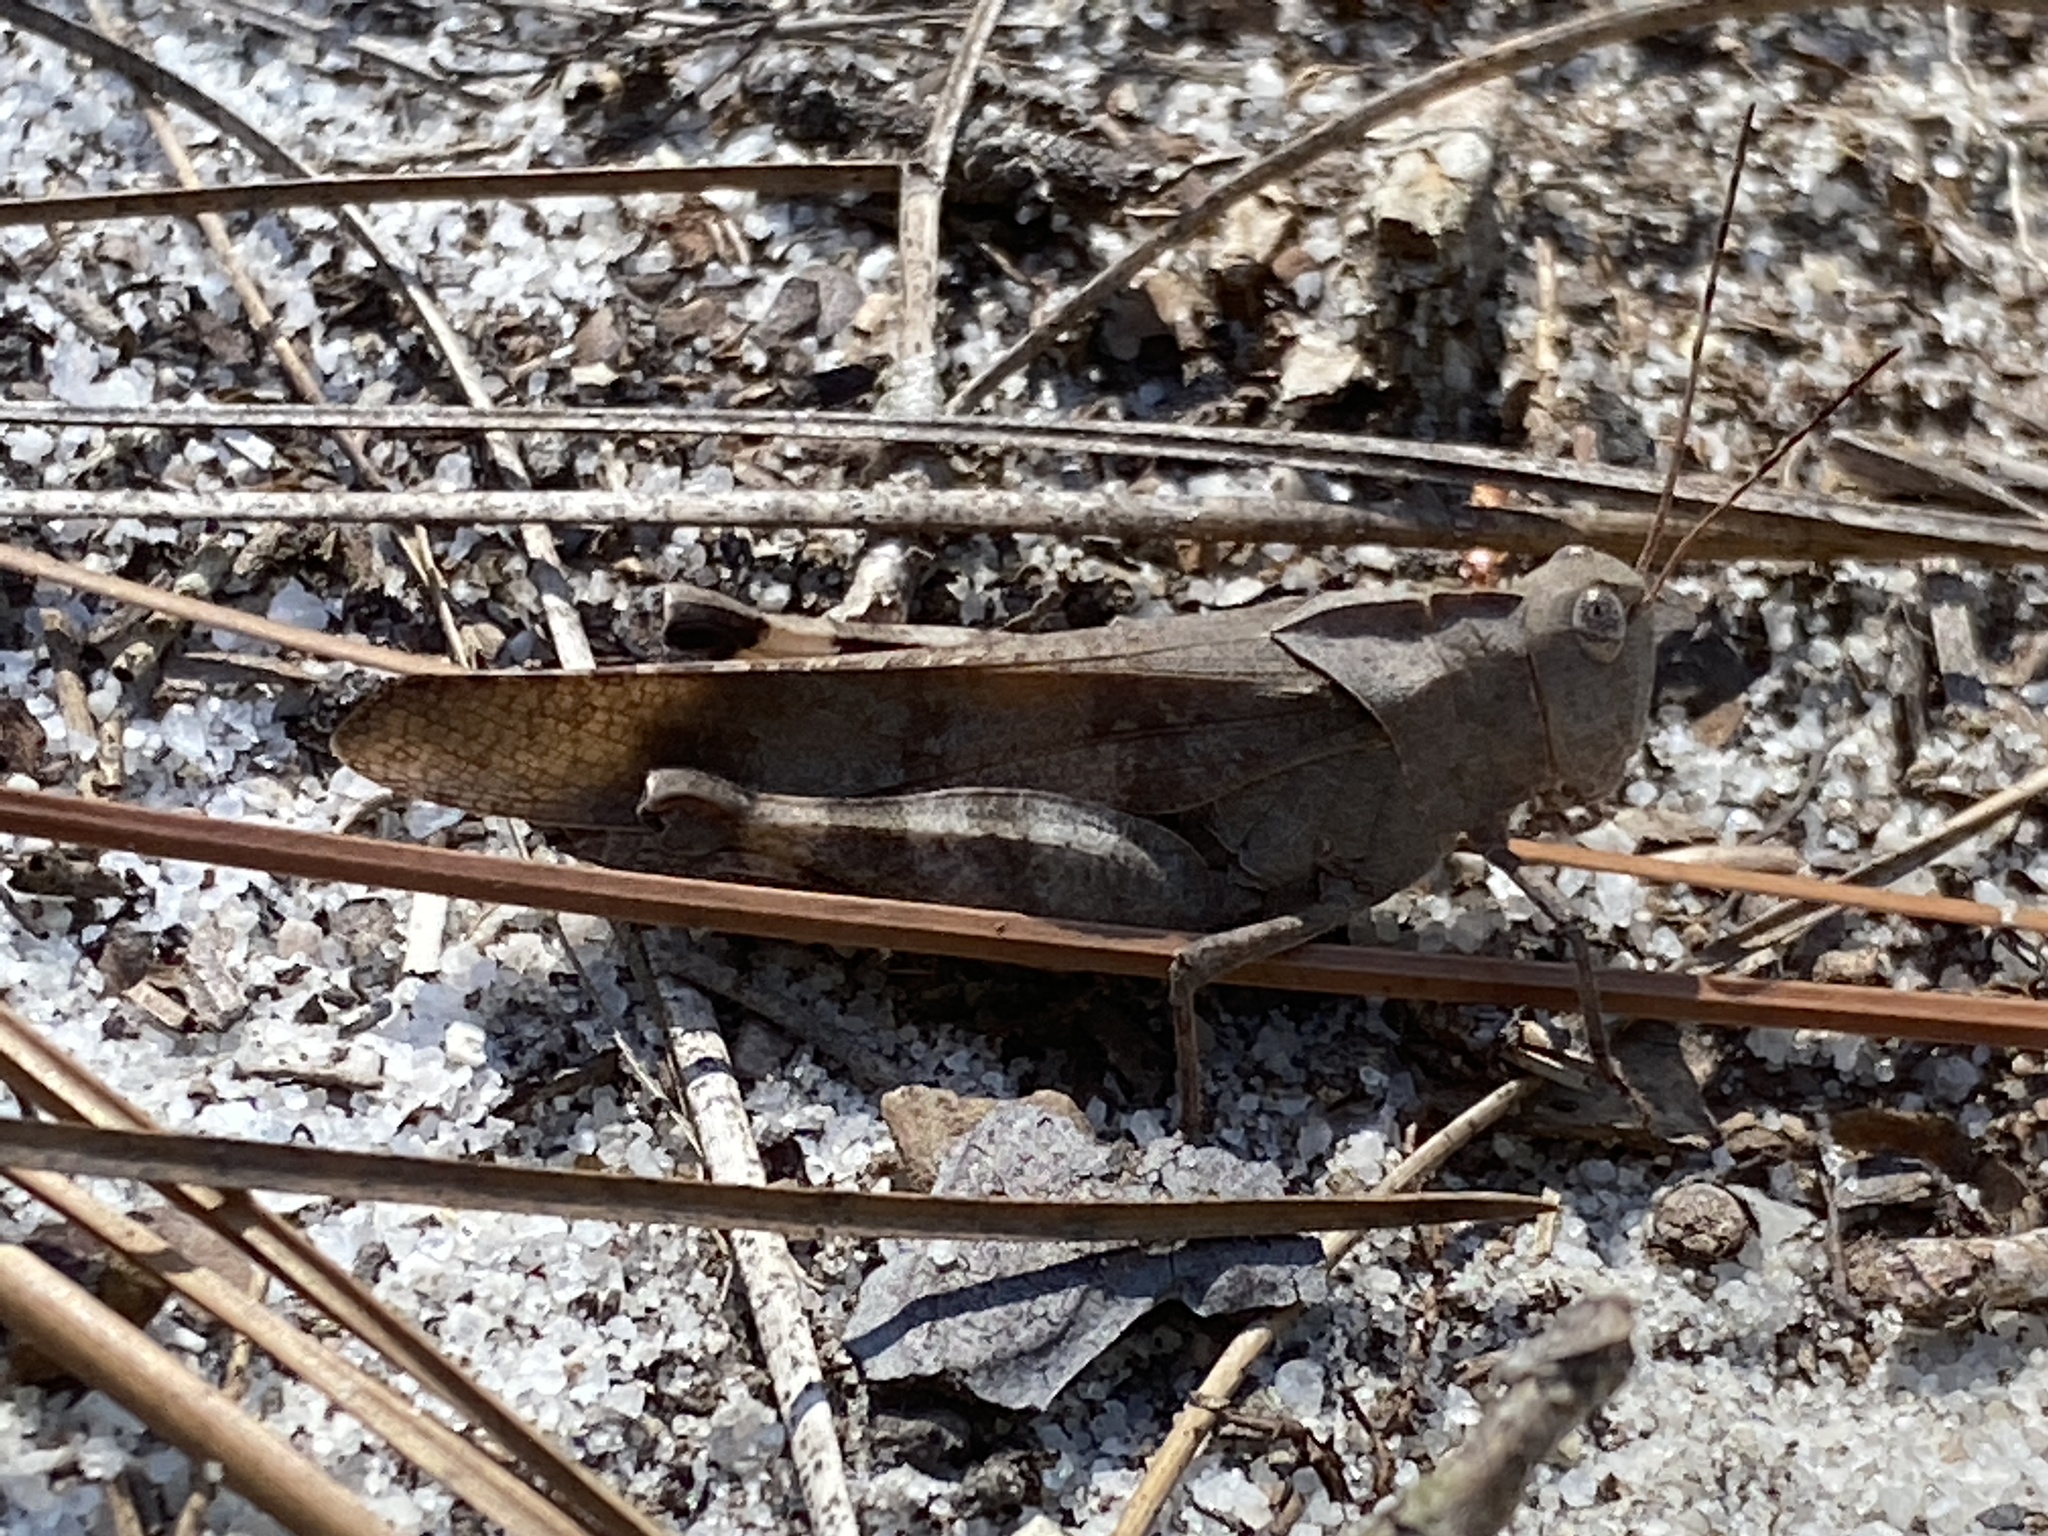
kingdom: Animalia
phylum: Arthropoda
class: Insecta
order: Orthoptera
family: Acrididae
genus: Spharagemon
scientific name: Spharagemon bolli
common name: Boll's grasshopper
